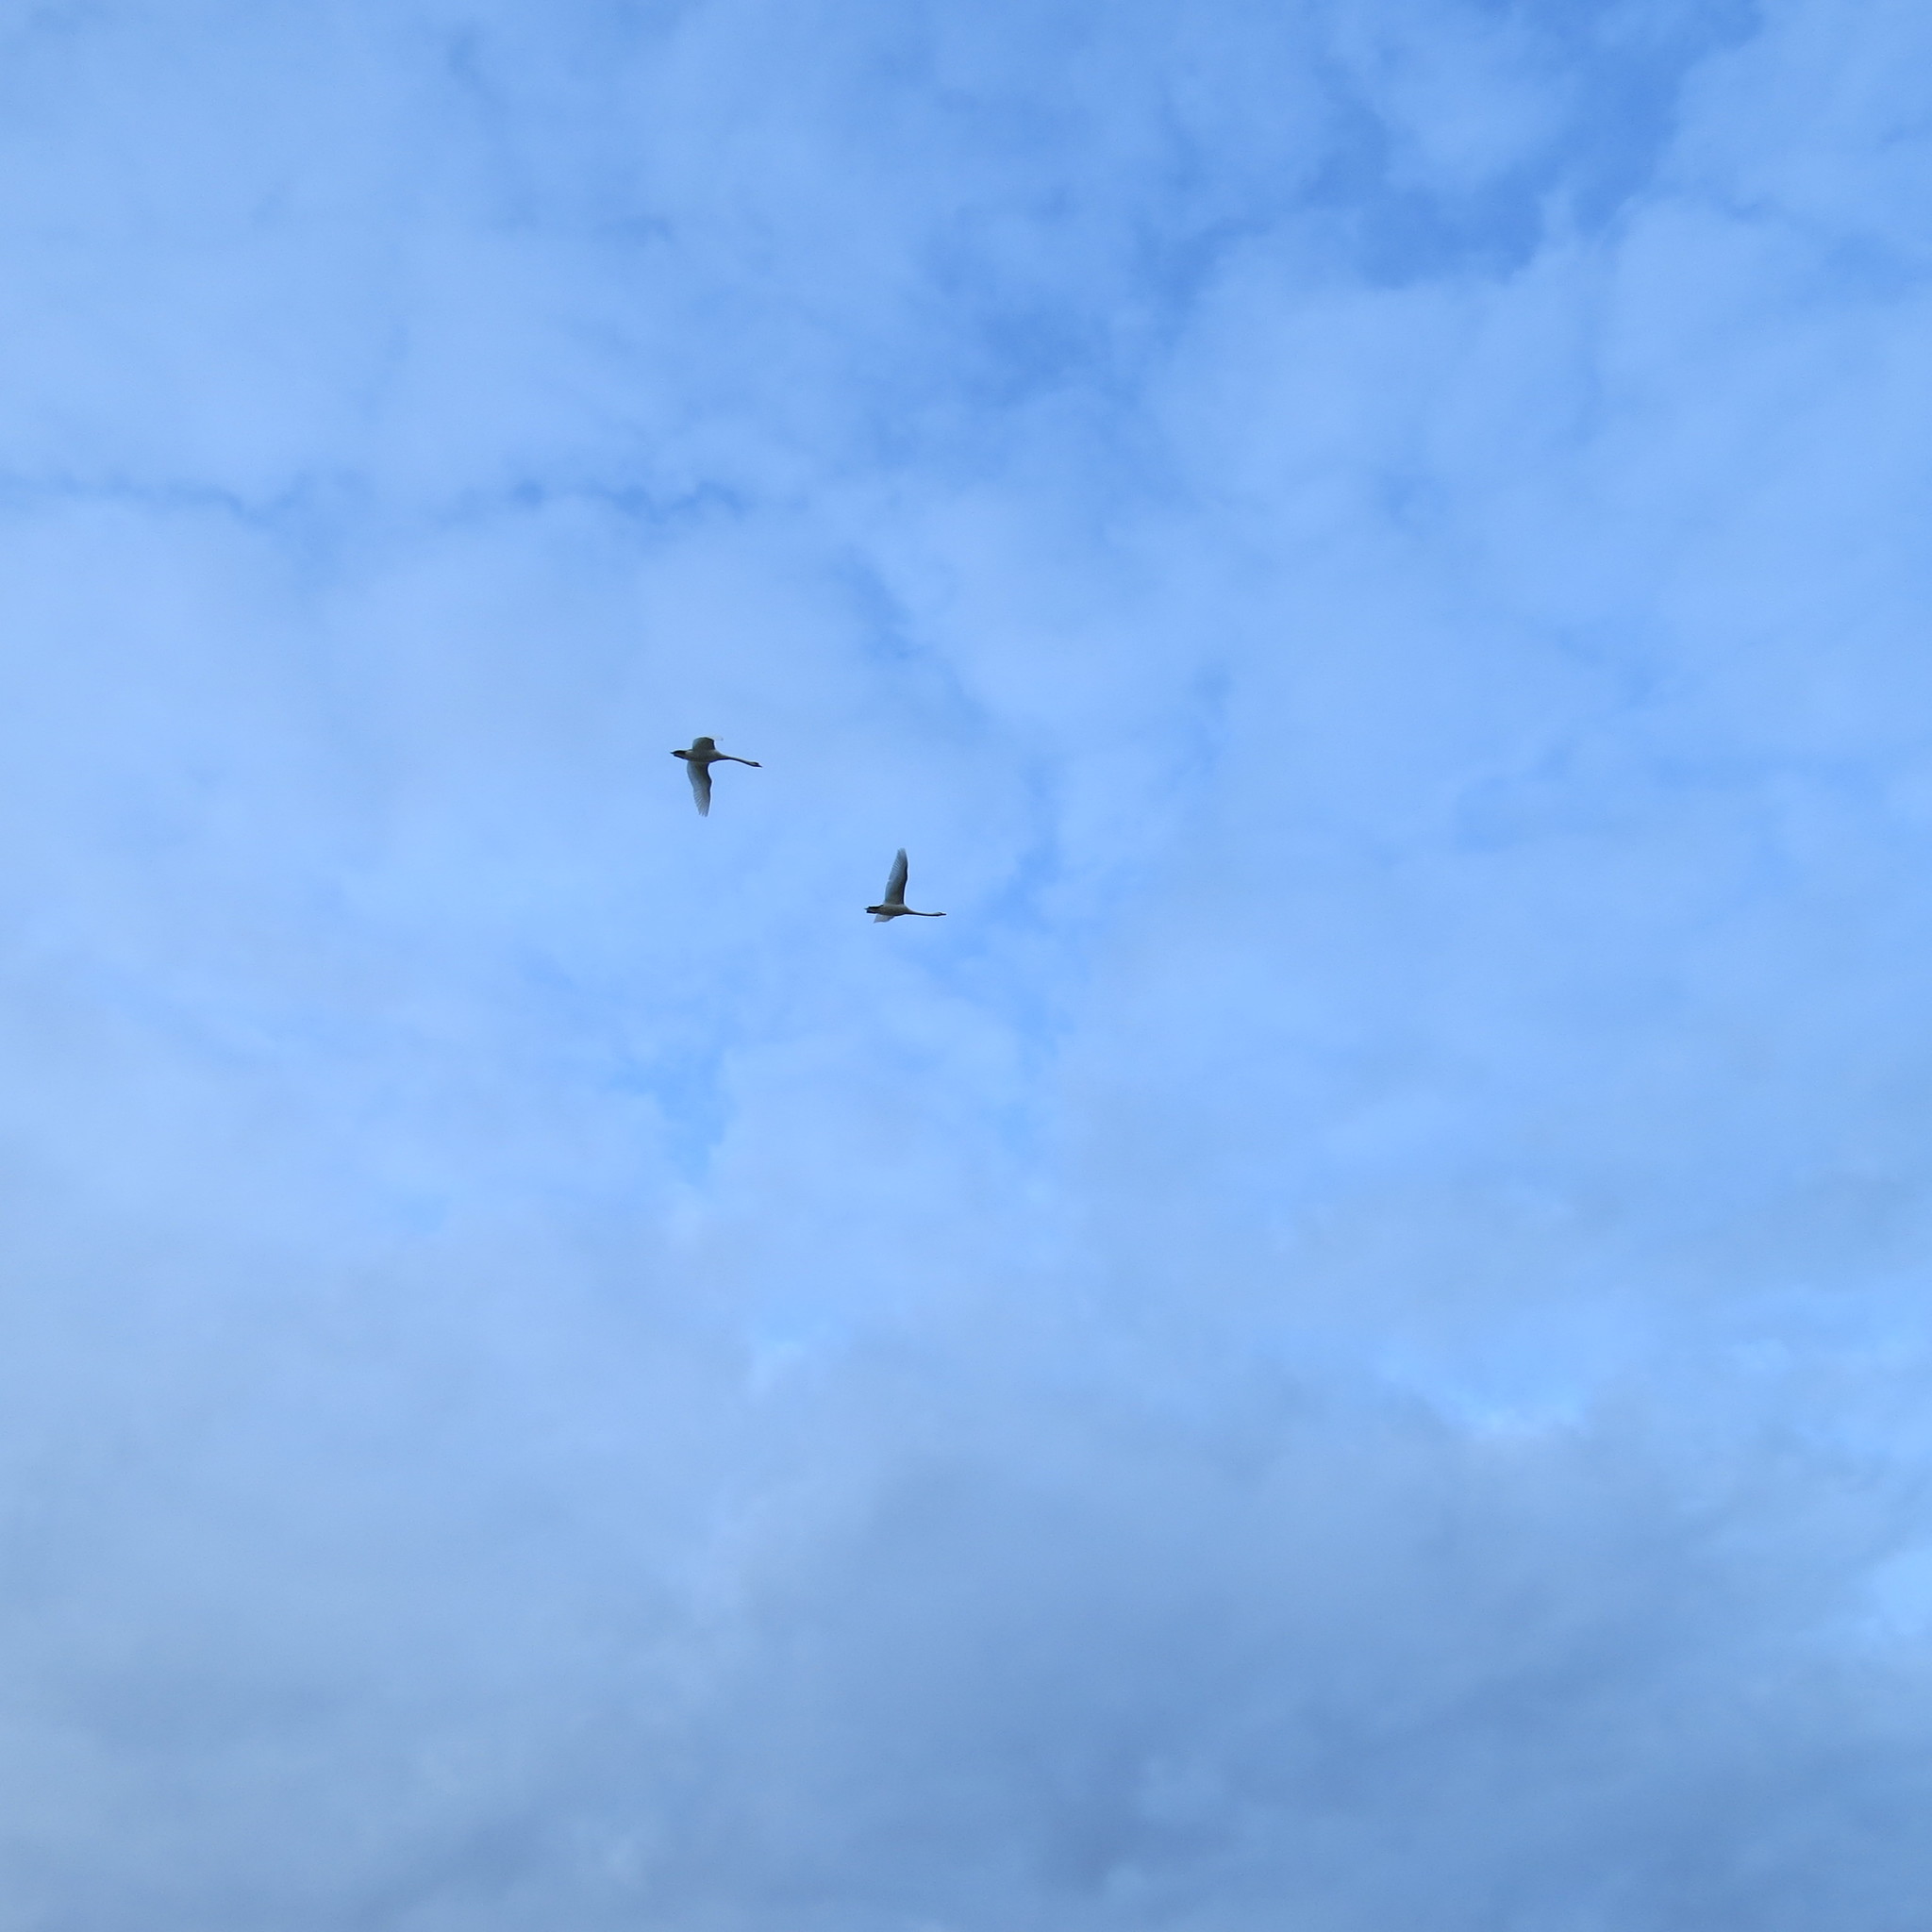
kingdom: Animalia
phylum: Chordata
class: Aves
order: Anseriformes
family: Anatidae
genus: Cygnus
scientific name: Cygnus olor
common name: Mute swan
